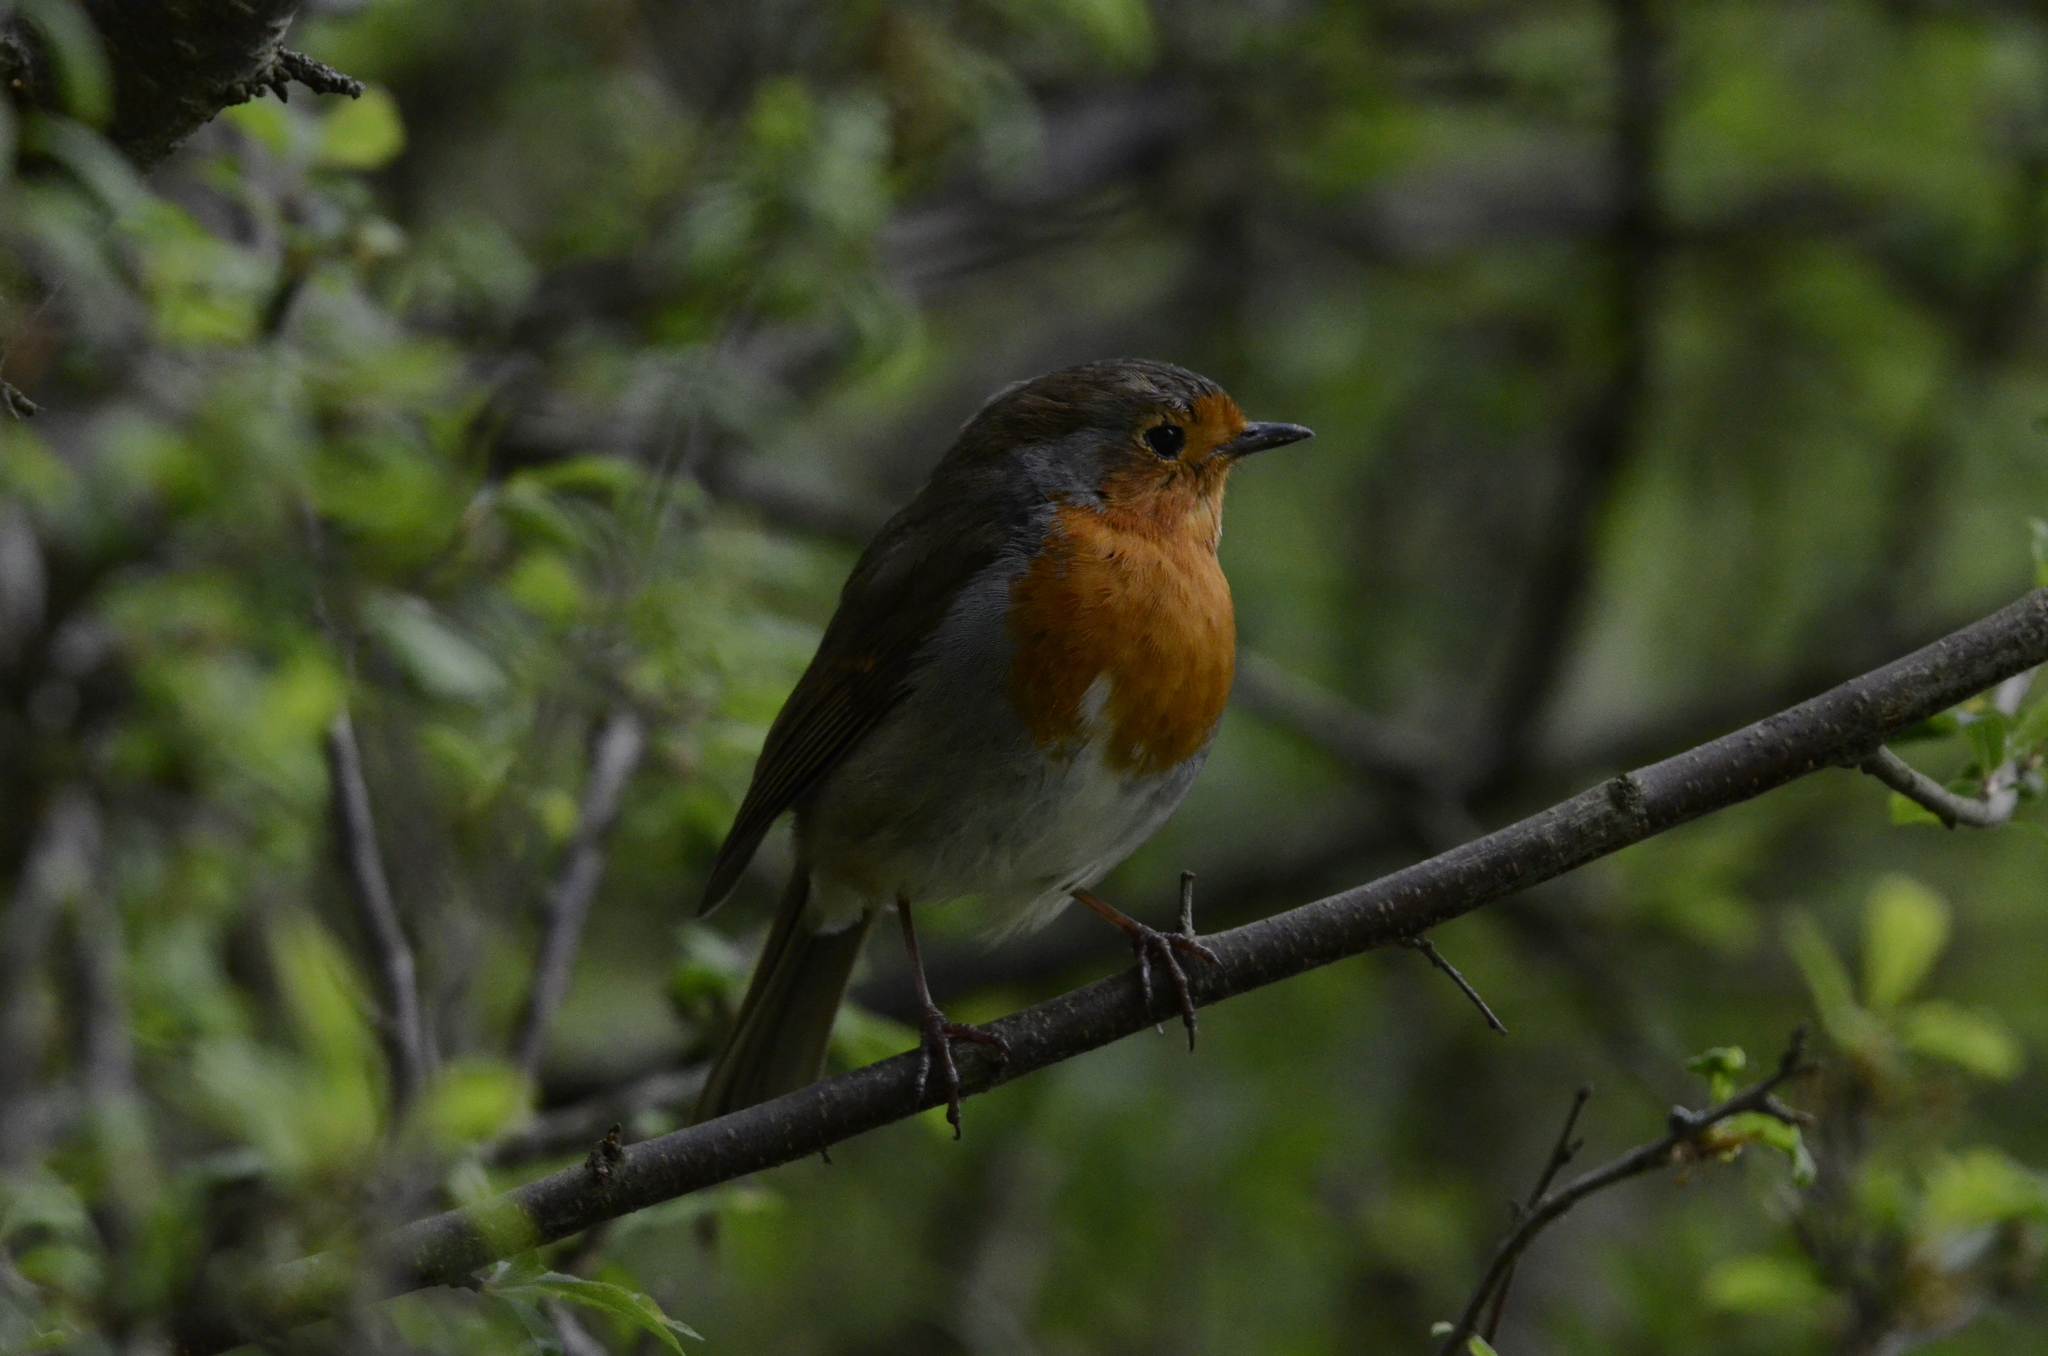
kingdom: Animalia
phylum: Chordata
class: Aves
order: Passeriformes
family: Muscicapidae
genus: Erithacus
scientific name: Erithacus rubecula
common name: European robin
